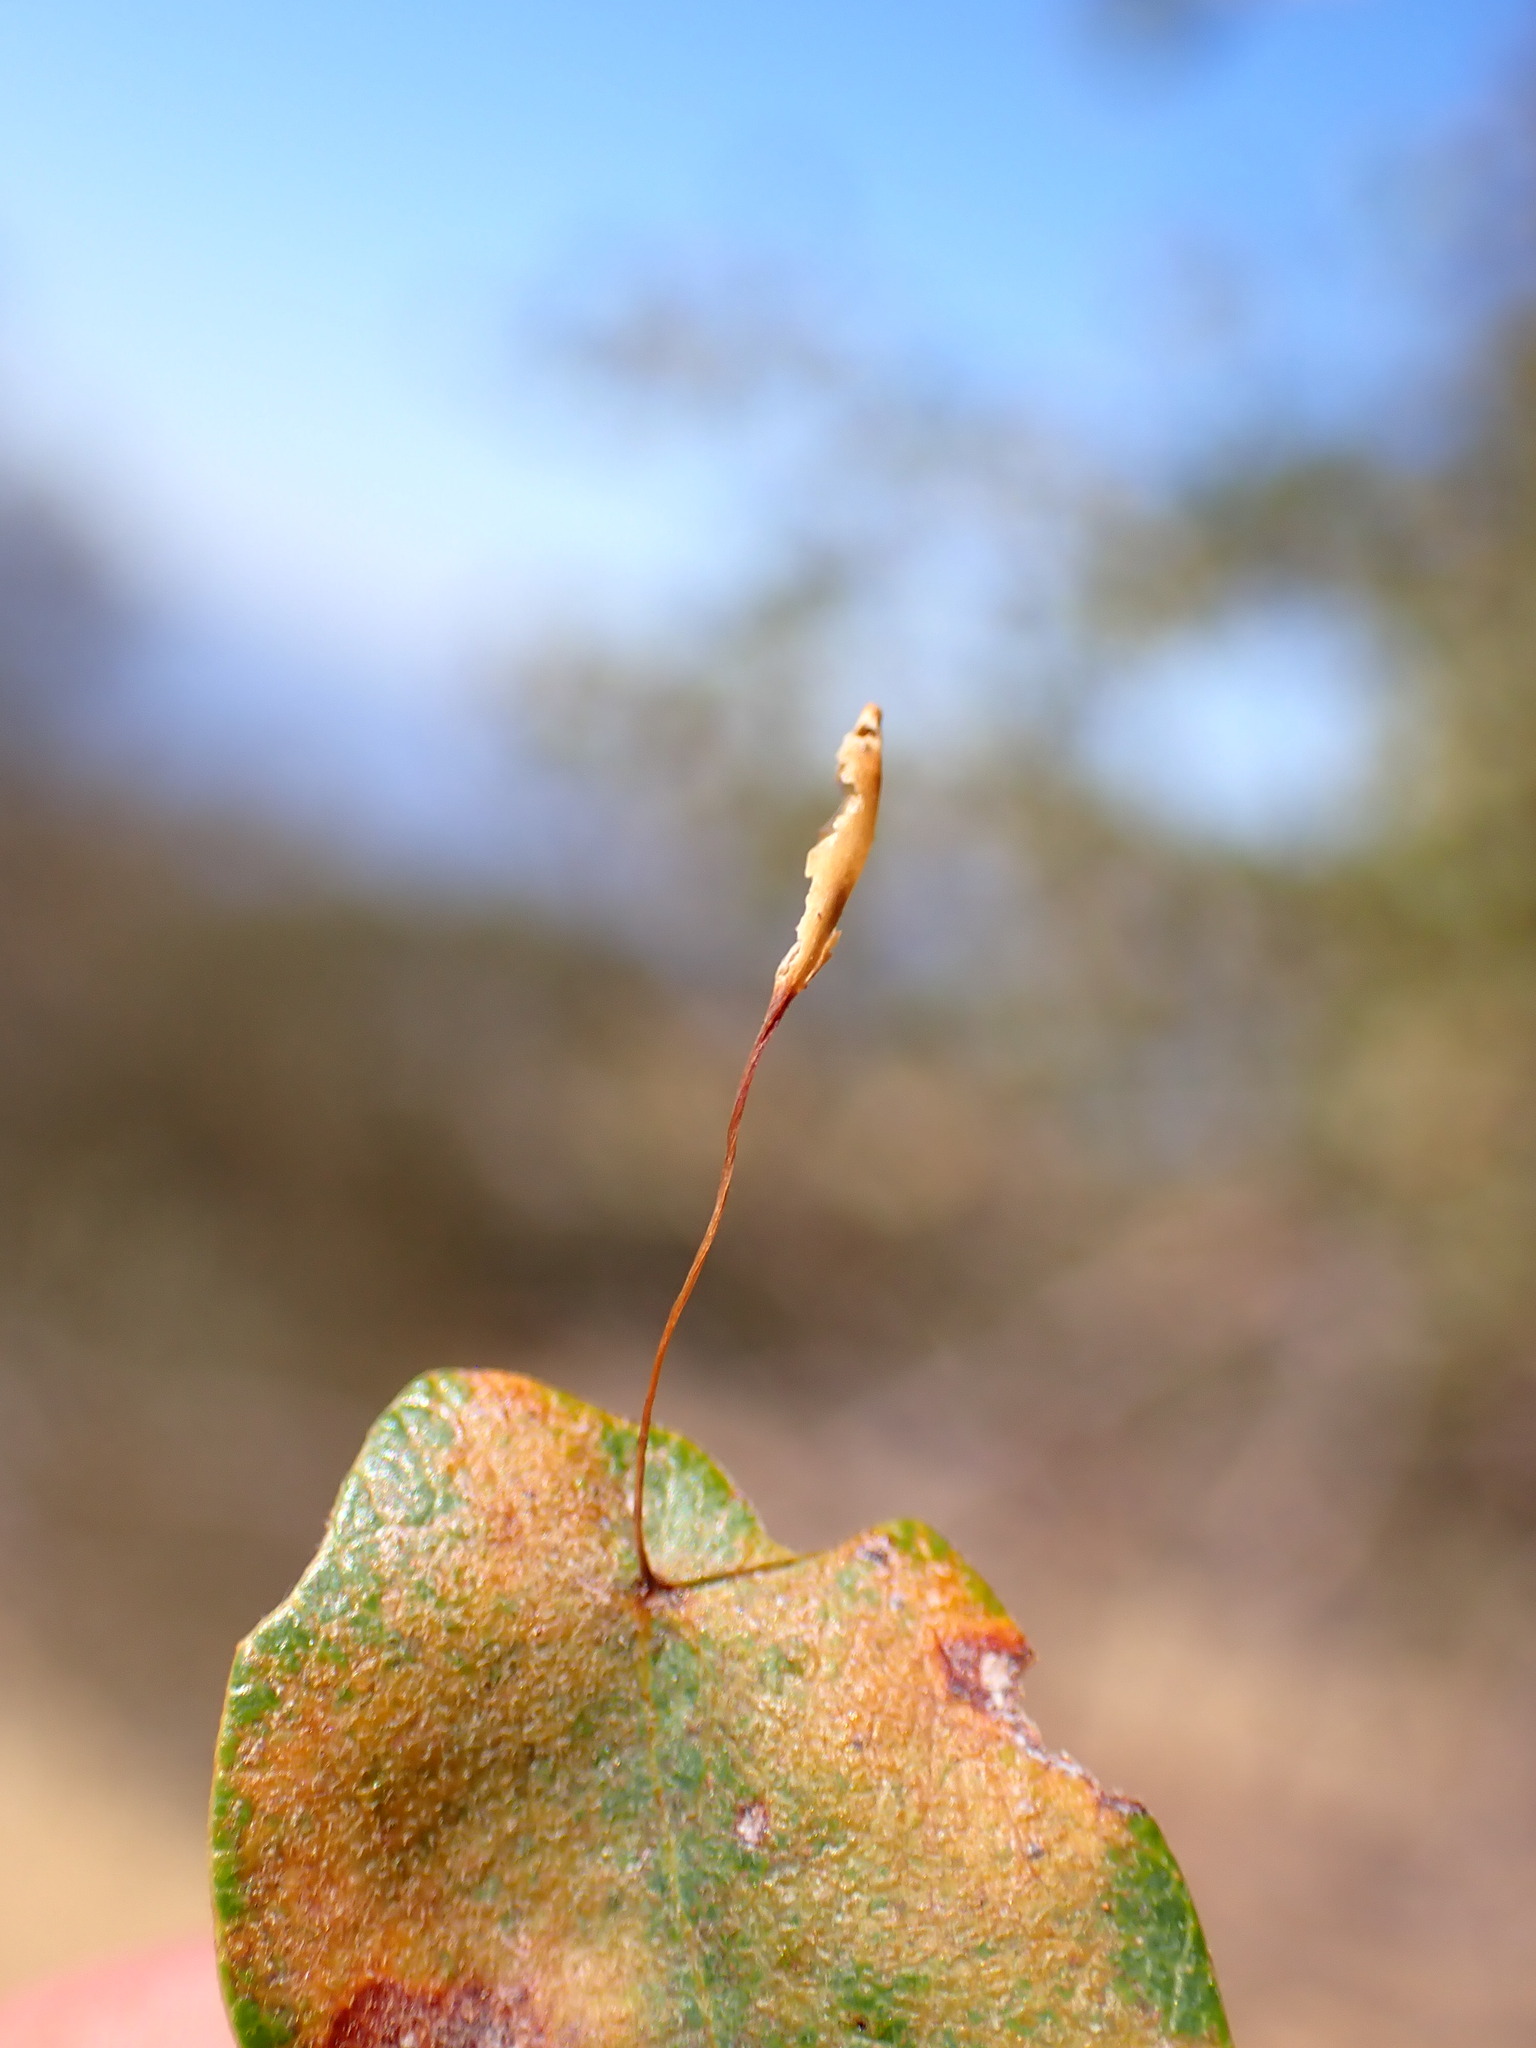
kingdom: Animalia
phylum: Arthropoda
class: Insecta
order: Hymenoptera
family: Cynipidae
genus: Andricus
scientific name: Andricus
